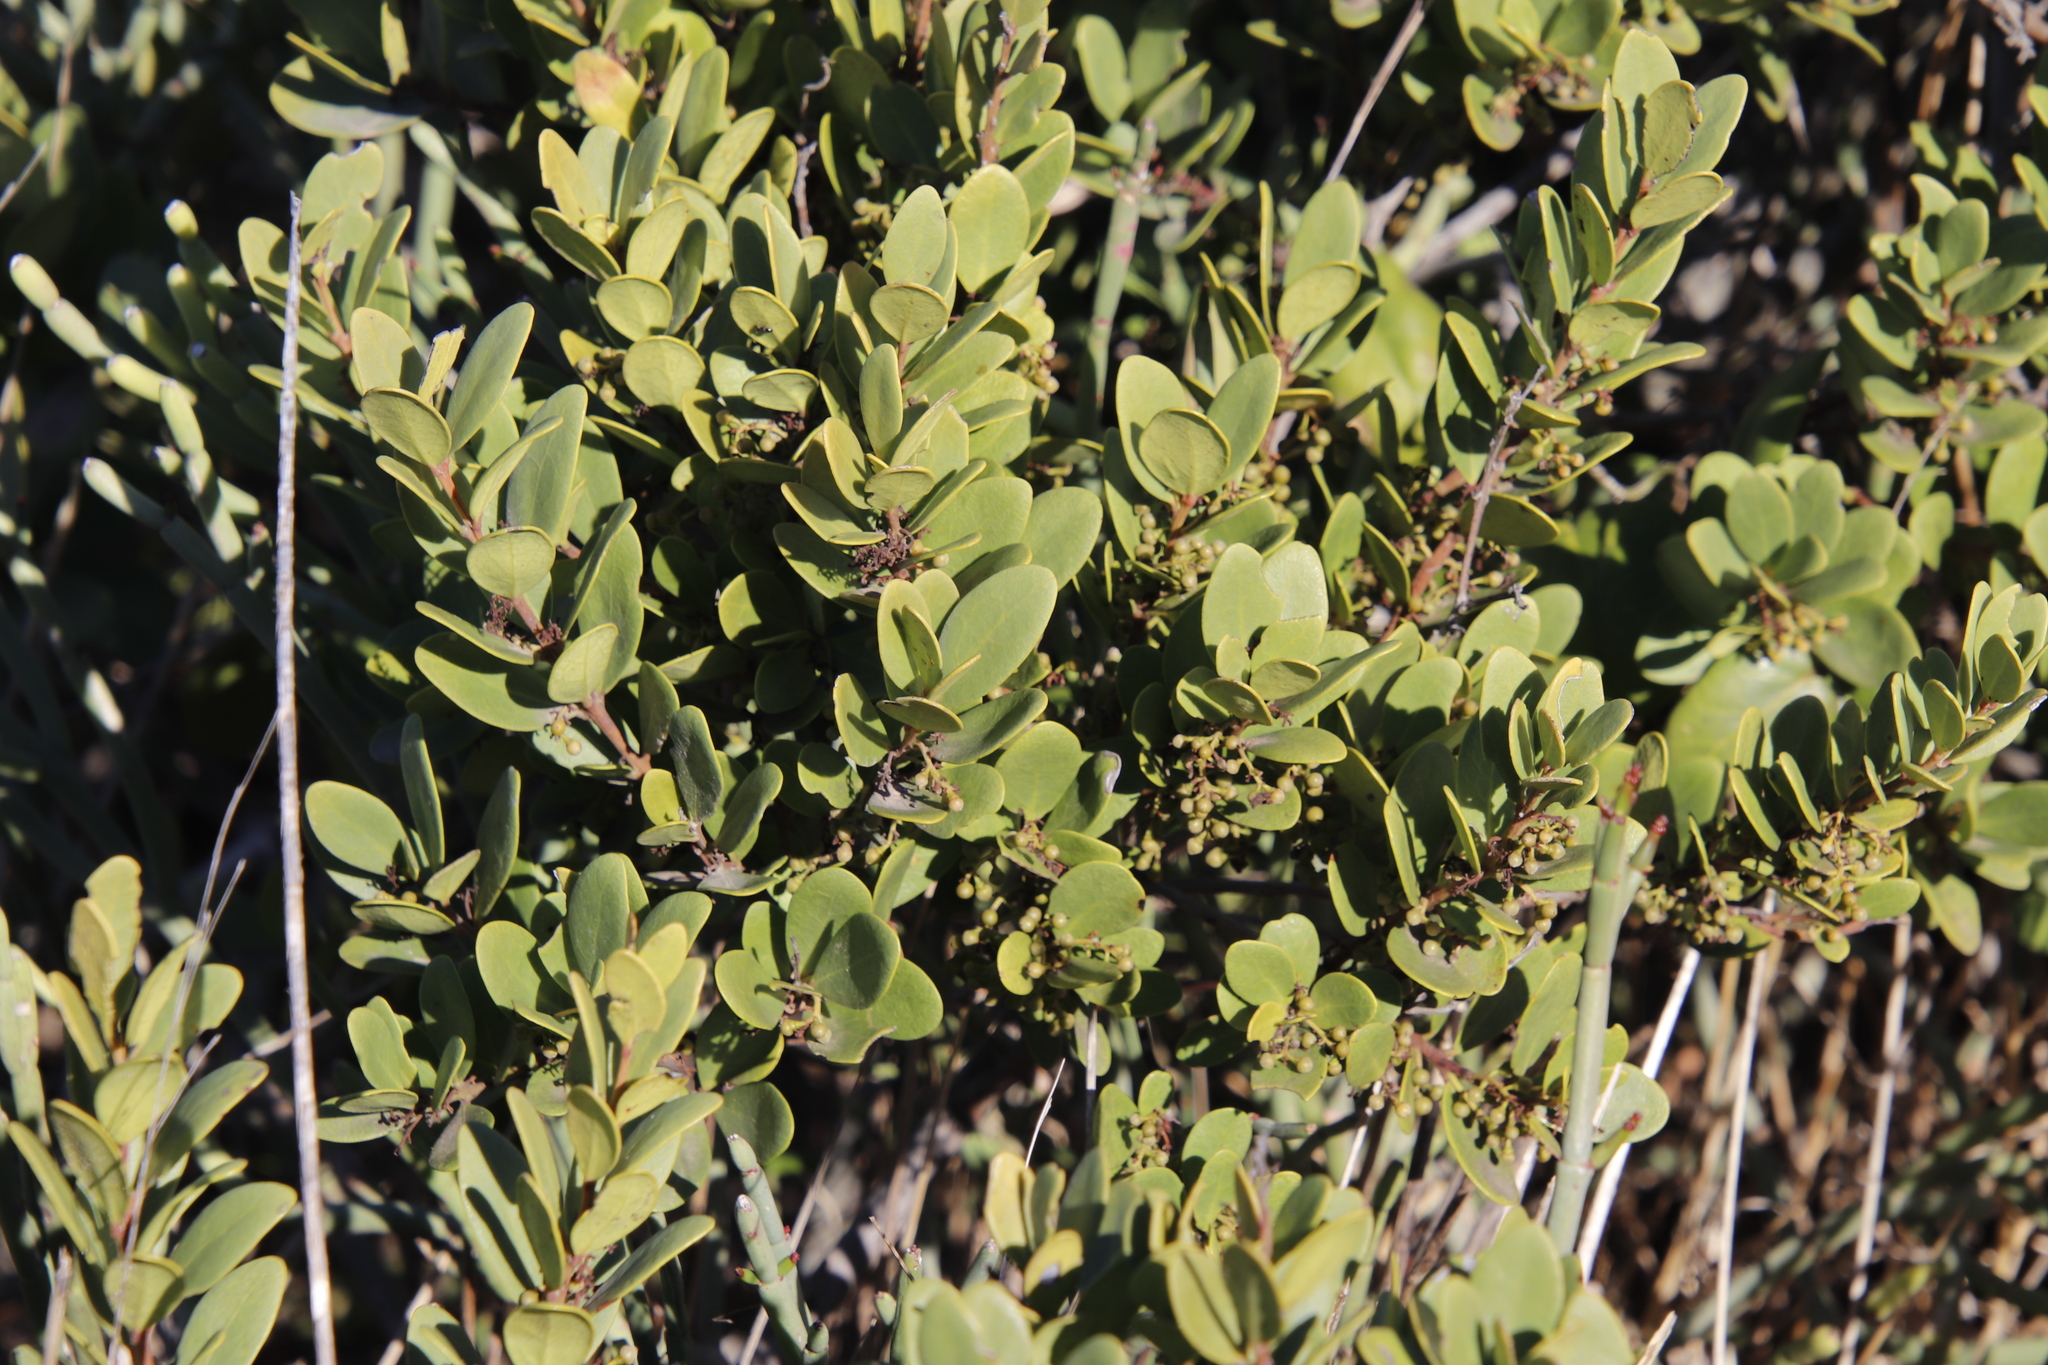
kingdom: Plantae
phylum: Tracheophyta
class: Magnoliopsida
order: Ericales
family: Ebenaceae
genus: Euclea
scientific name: Euclea racemosa
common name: Dune guarri
